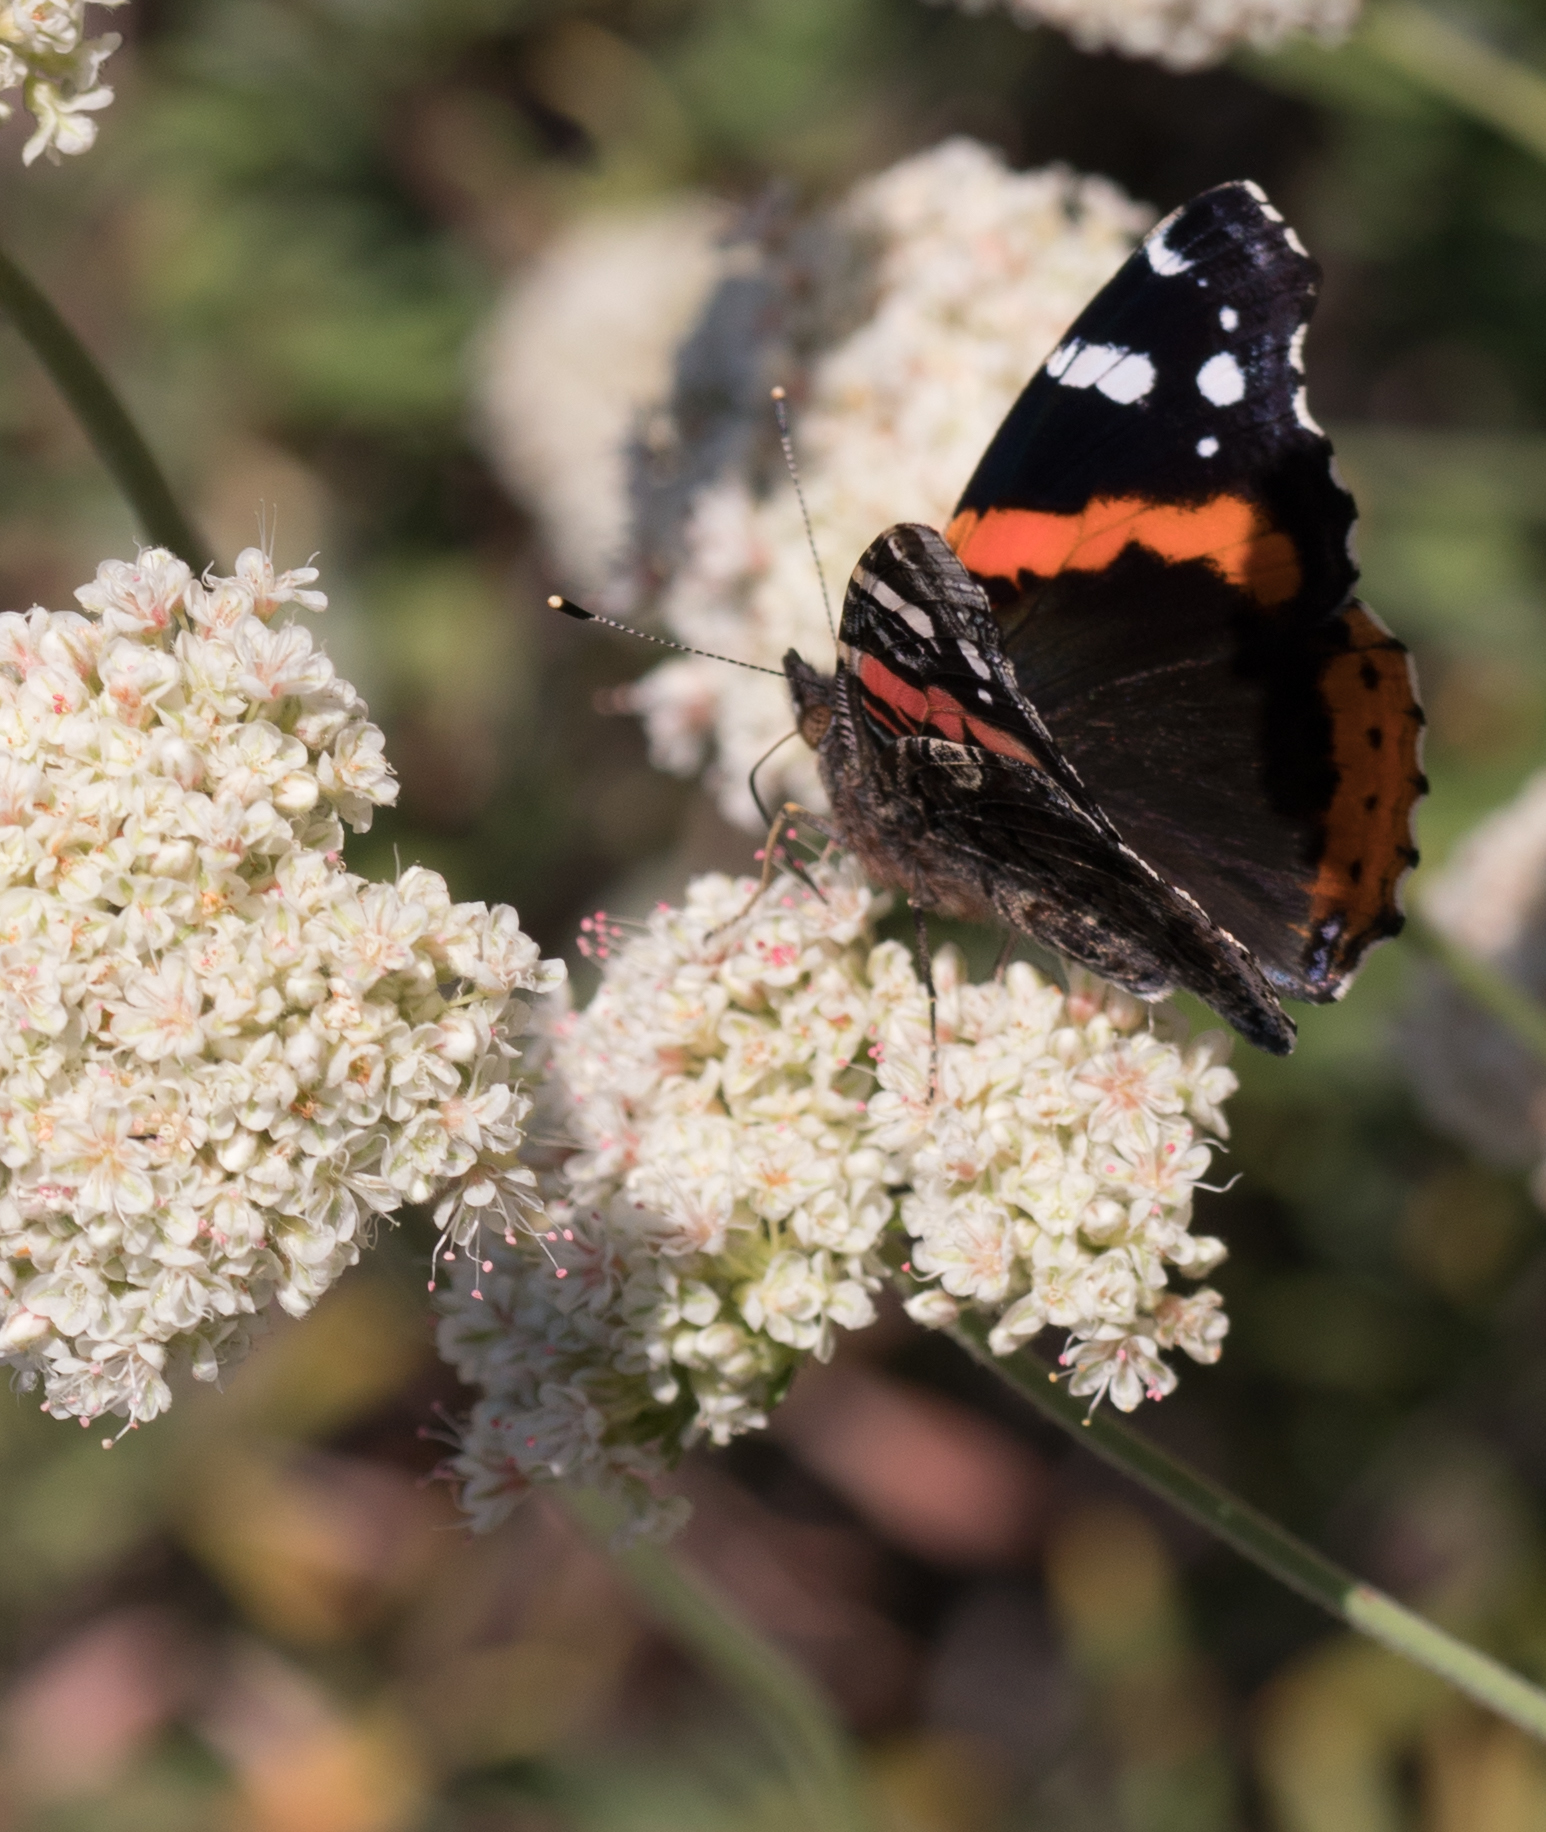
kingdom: Animalia
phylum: Arthropoda
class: Insecta
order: Lepidoptera
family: Nymphalidae
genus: Vanessa
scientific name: Vanessa atalanta
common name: Red admiral
